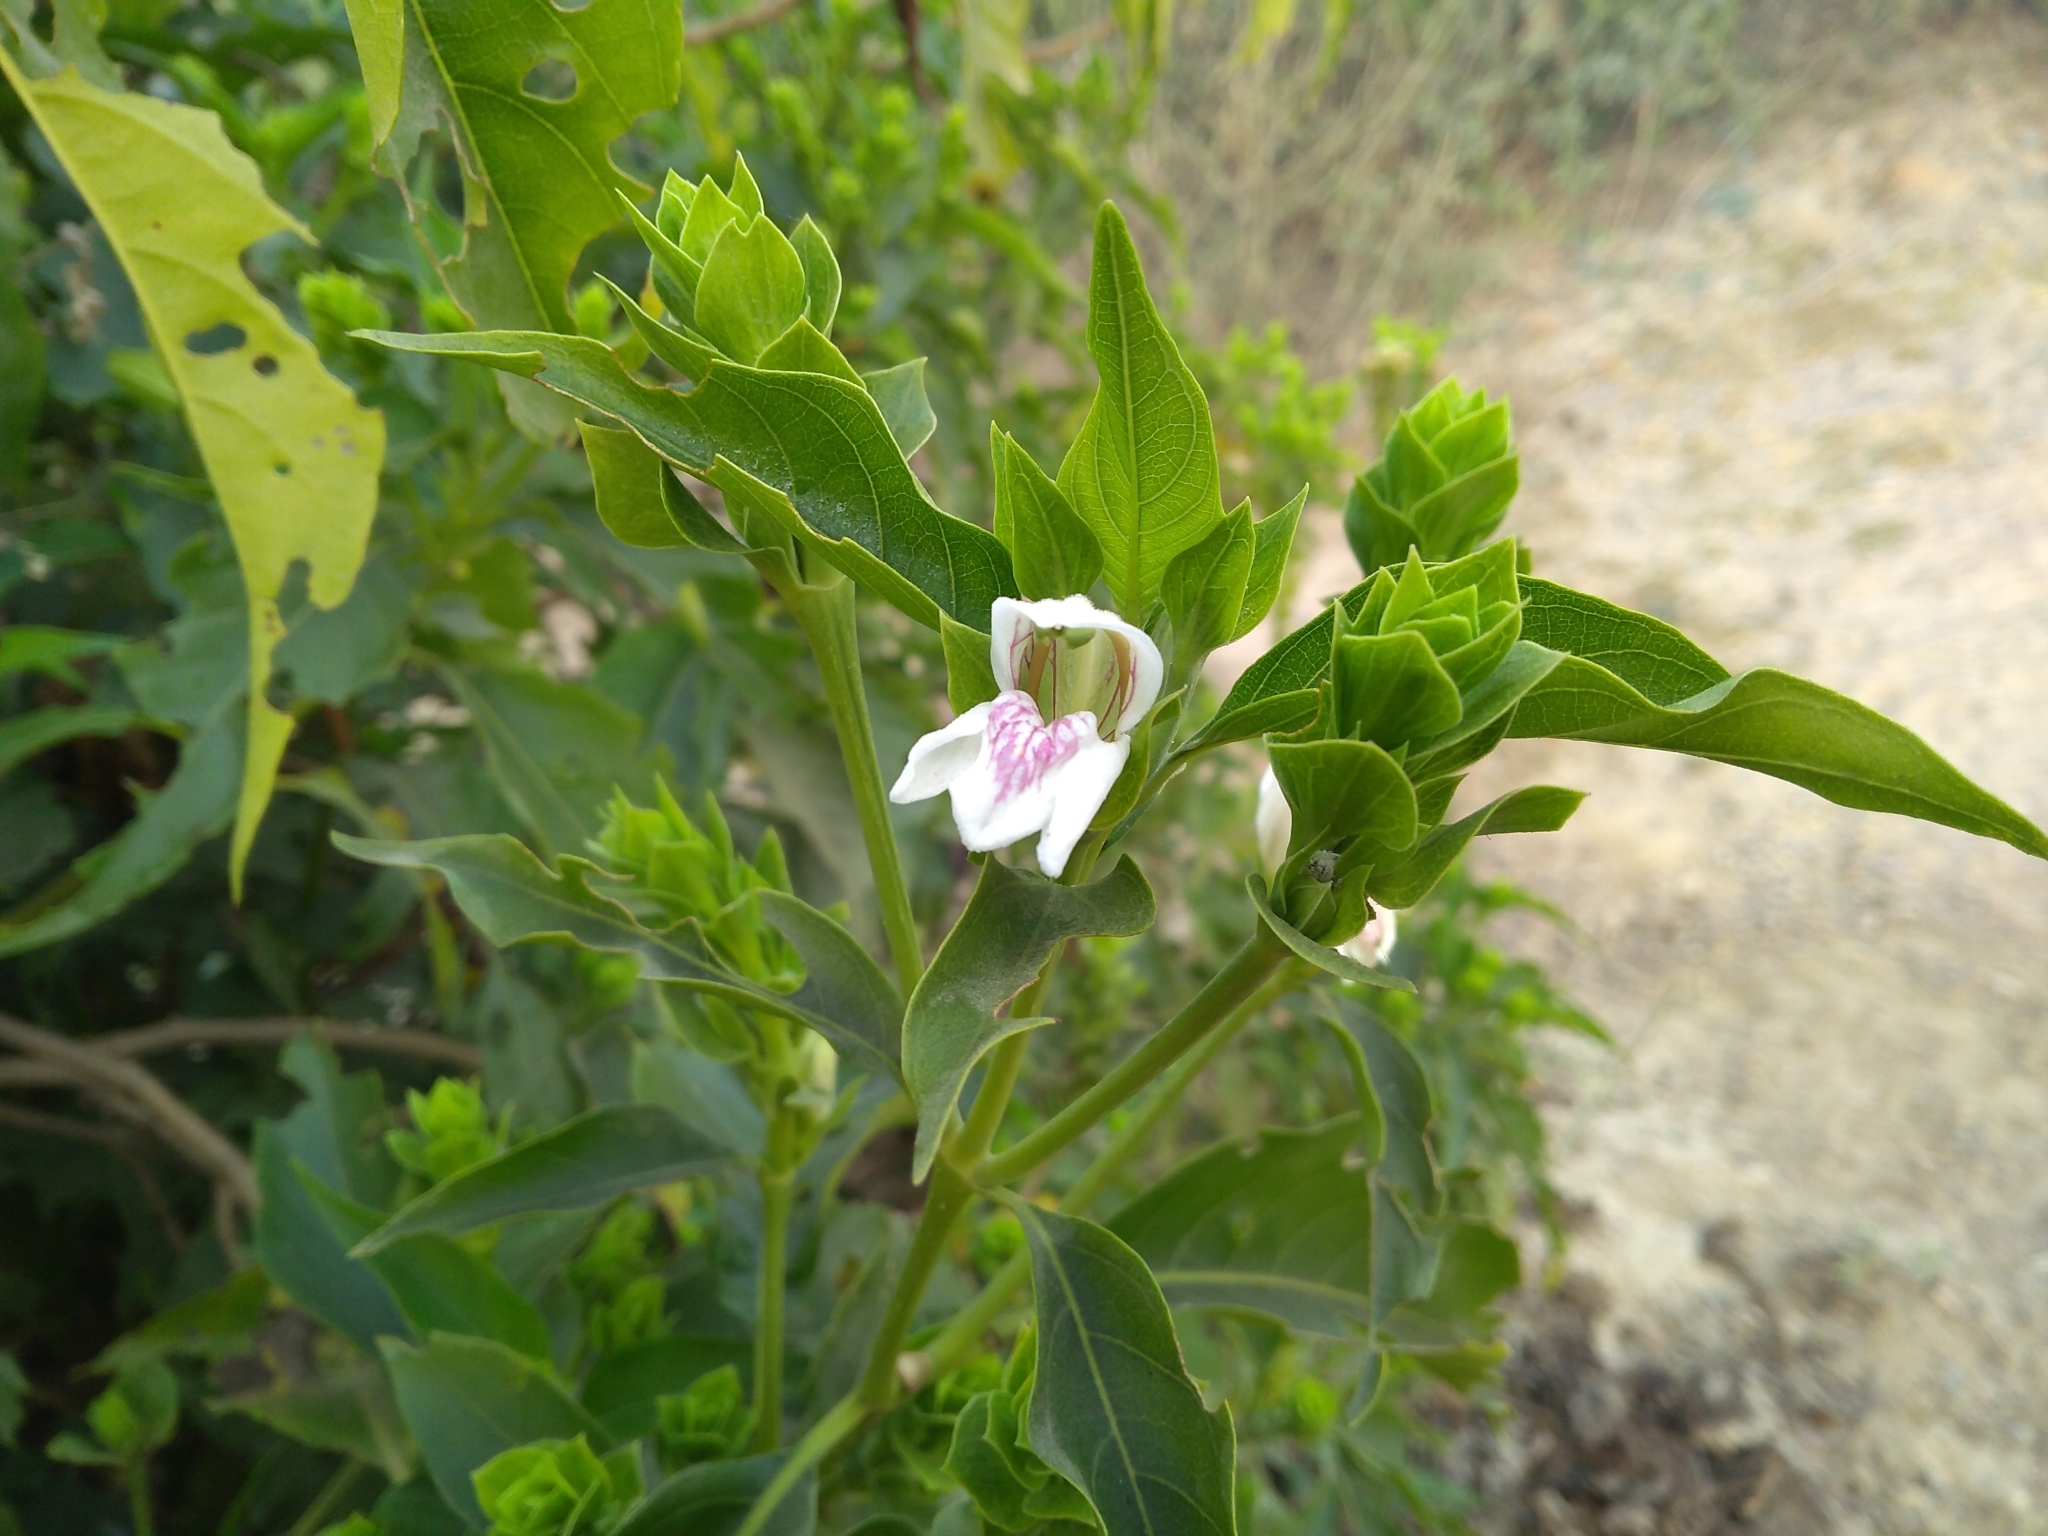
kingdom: Plantae
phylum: Tracheophyta
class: Magnoliopsida
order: Lamiales
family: Acanthaceae
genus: Justicia
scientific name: Justicia adhatoda
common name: Malabar nut
